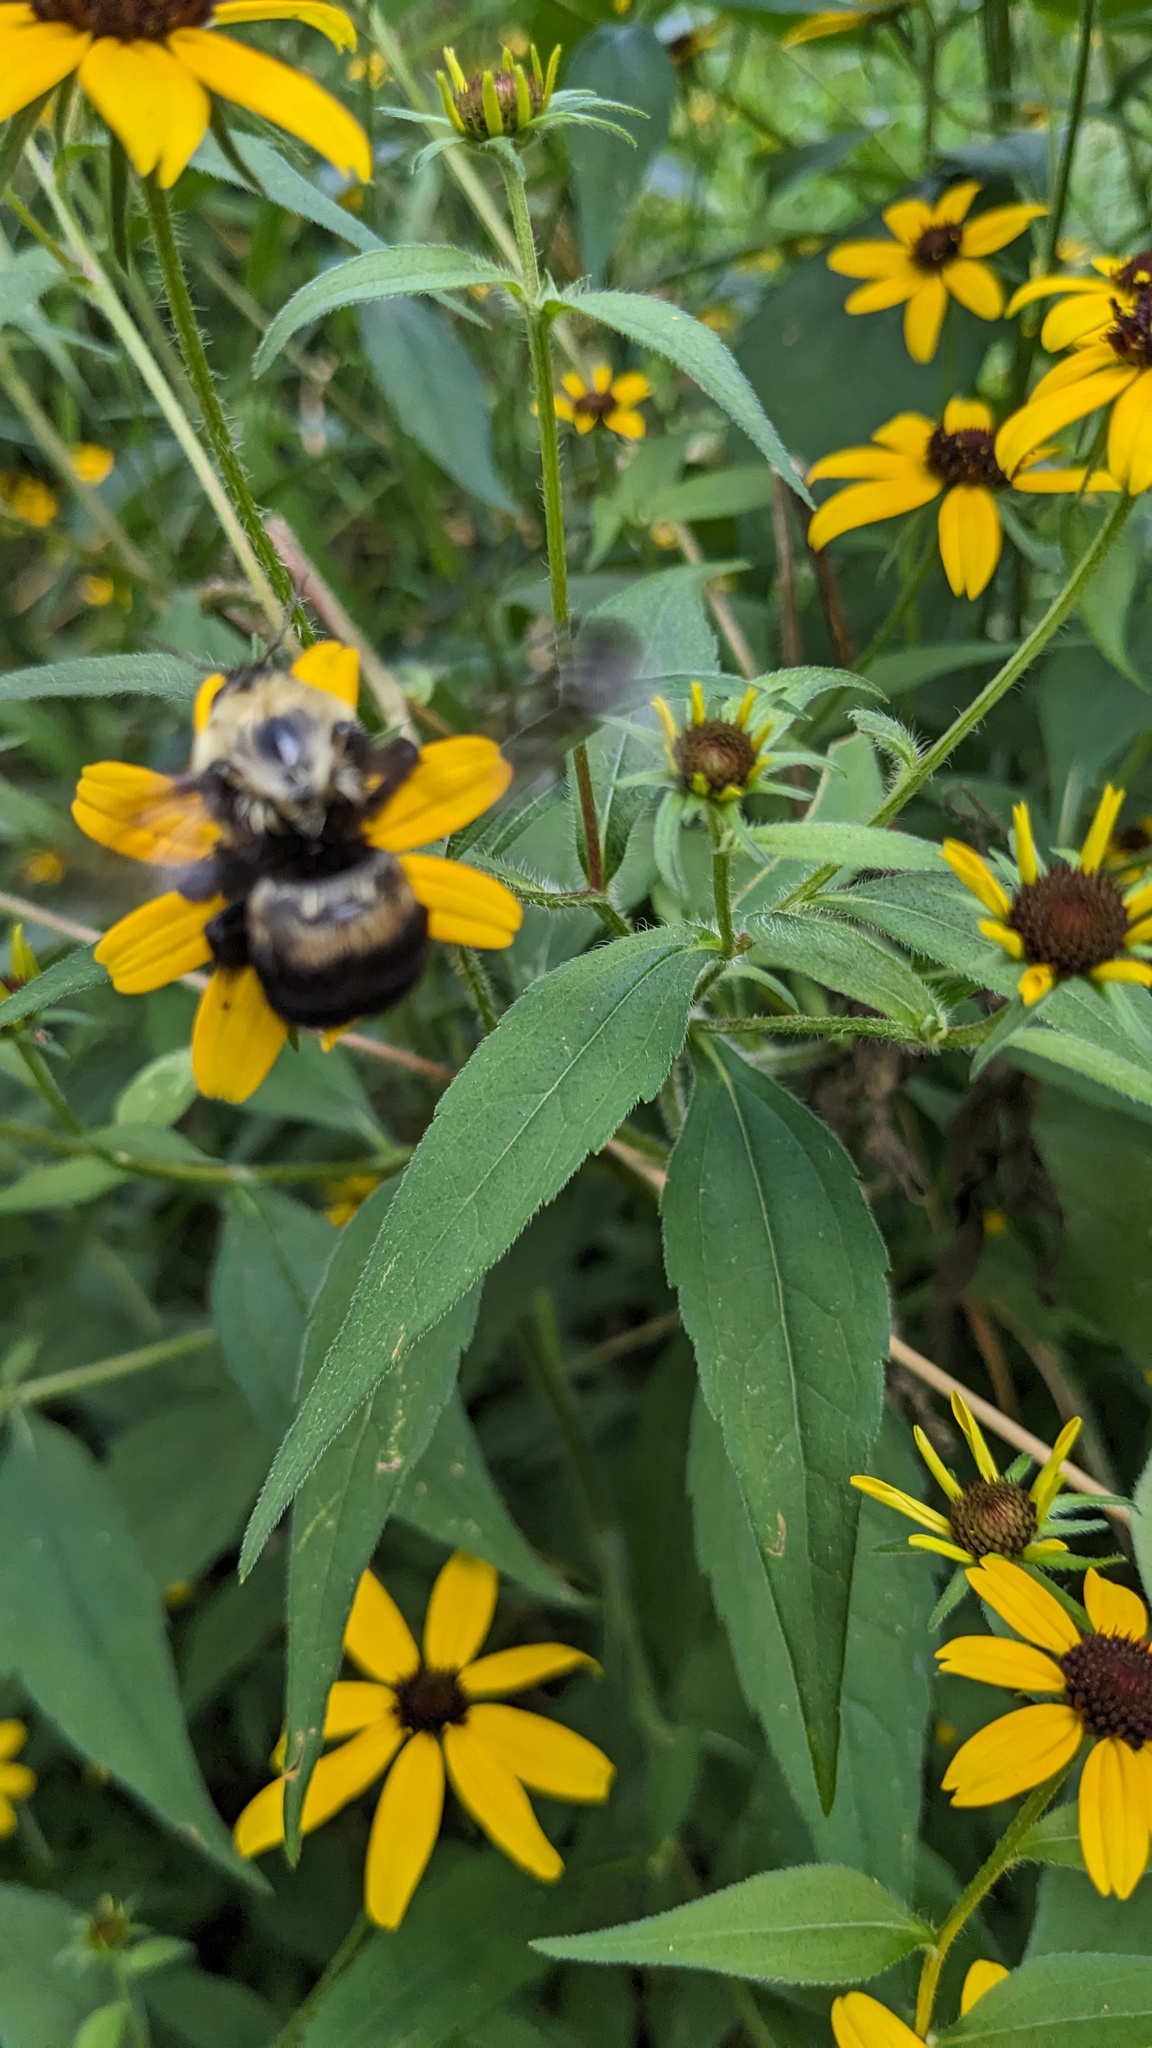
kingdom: Animalia
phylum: Arthropoda
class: Insecta
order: Hymenoptera
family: Apidae
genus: Bombus
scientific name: Bombus griseocollis
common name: Brown-belted bumble bee
